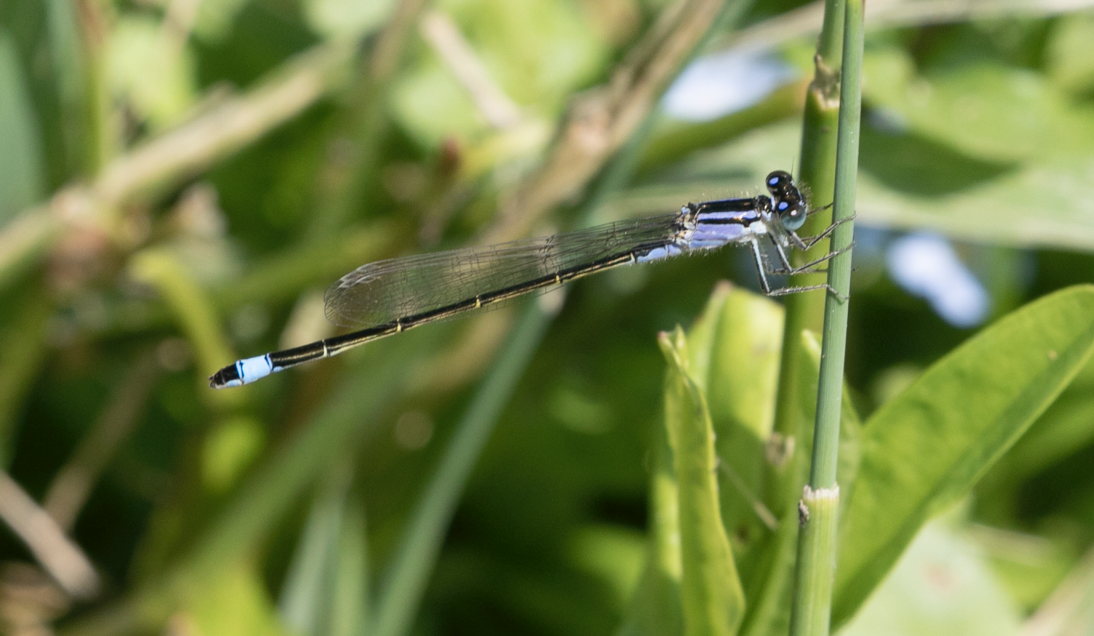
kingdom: Animalia
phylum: Arthropoda
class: Insecta
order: Odonata
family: Coenagrionidae
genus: Ischnura
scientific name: Ischnura elegans
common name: Blue-tailed damselfly
